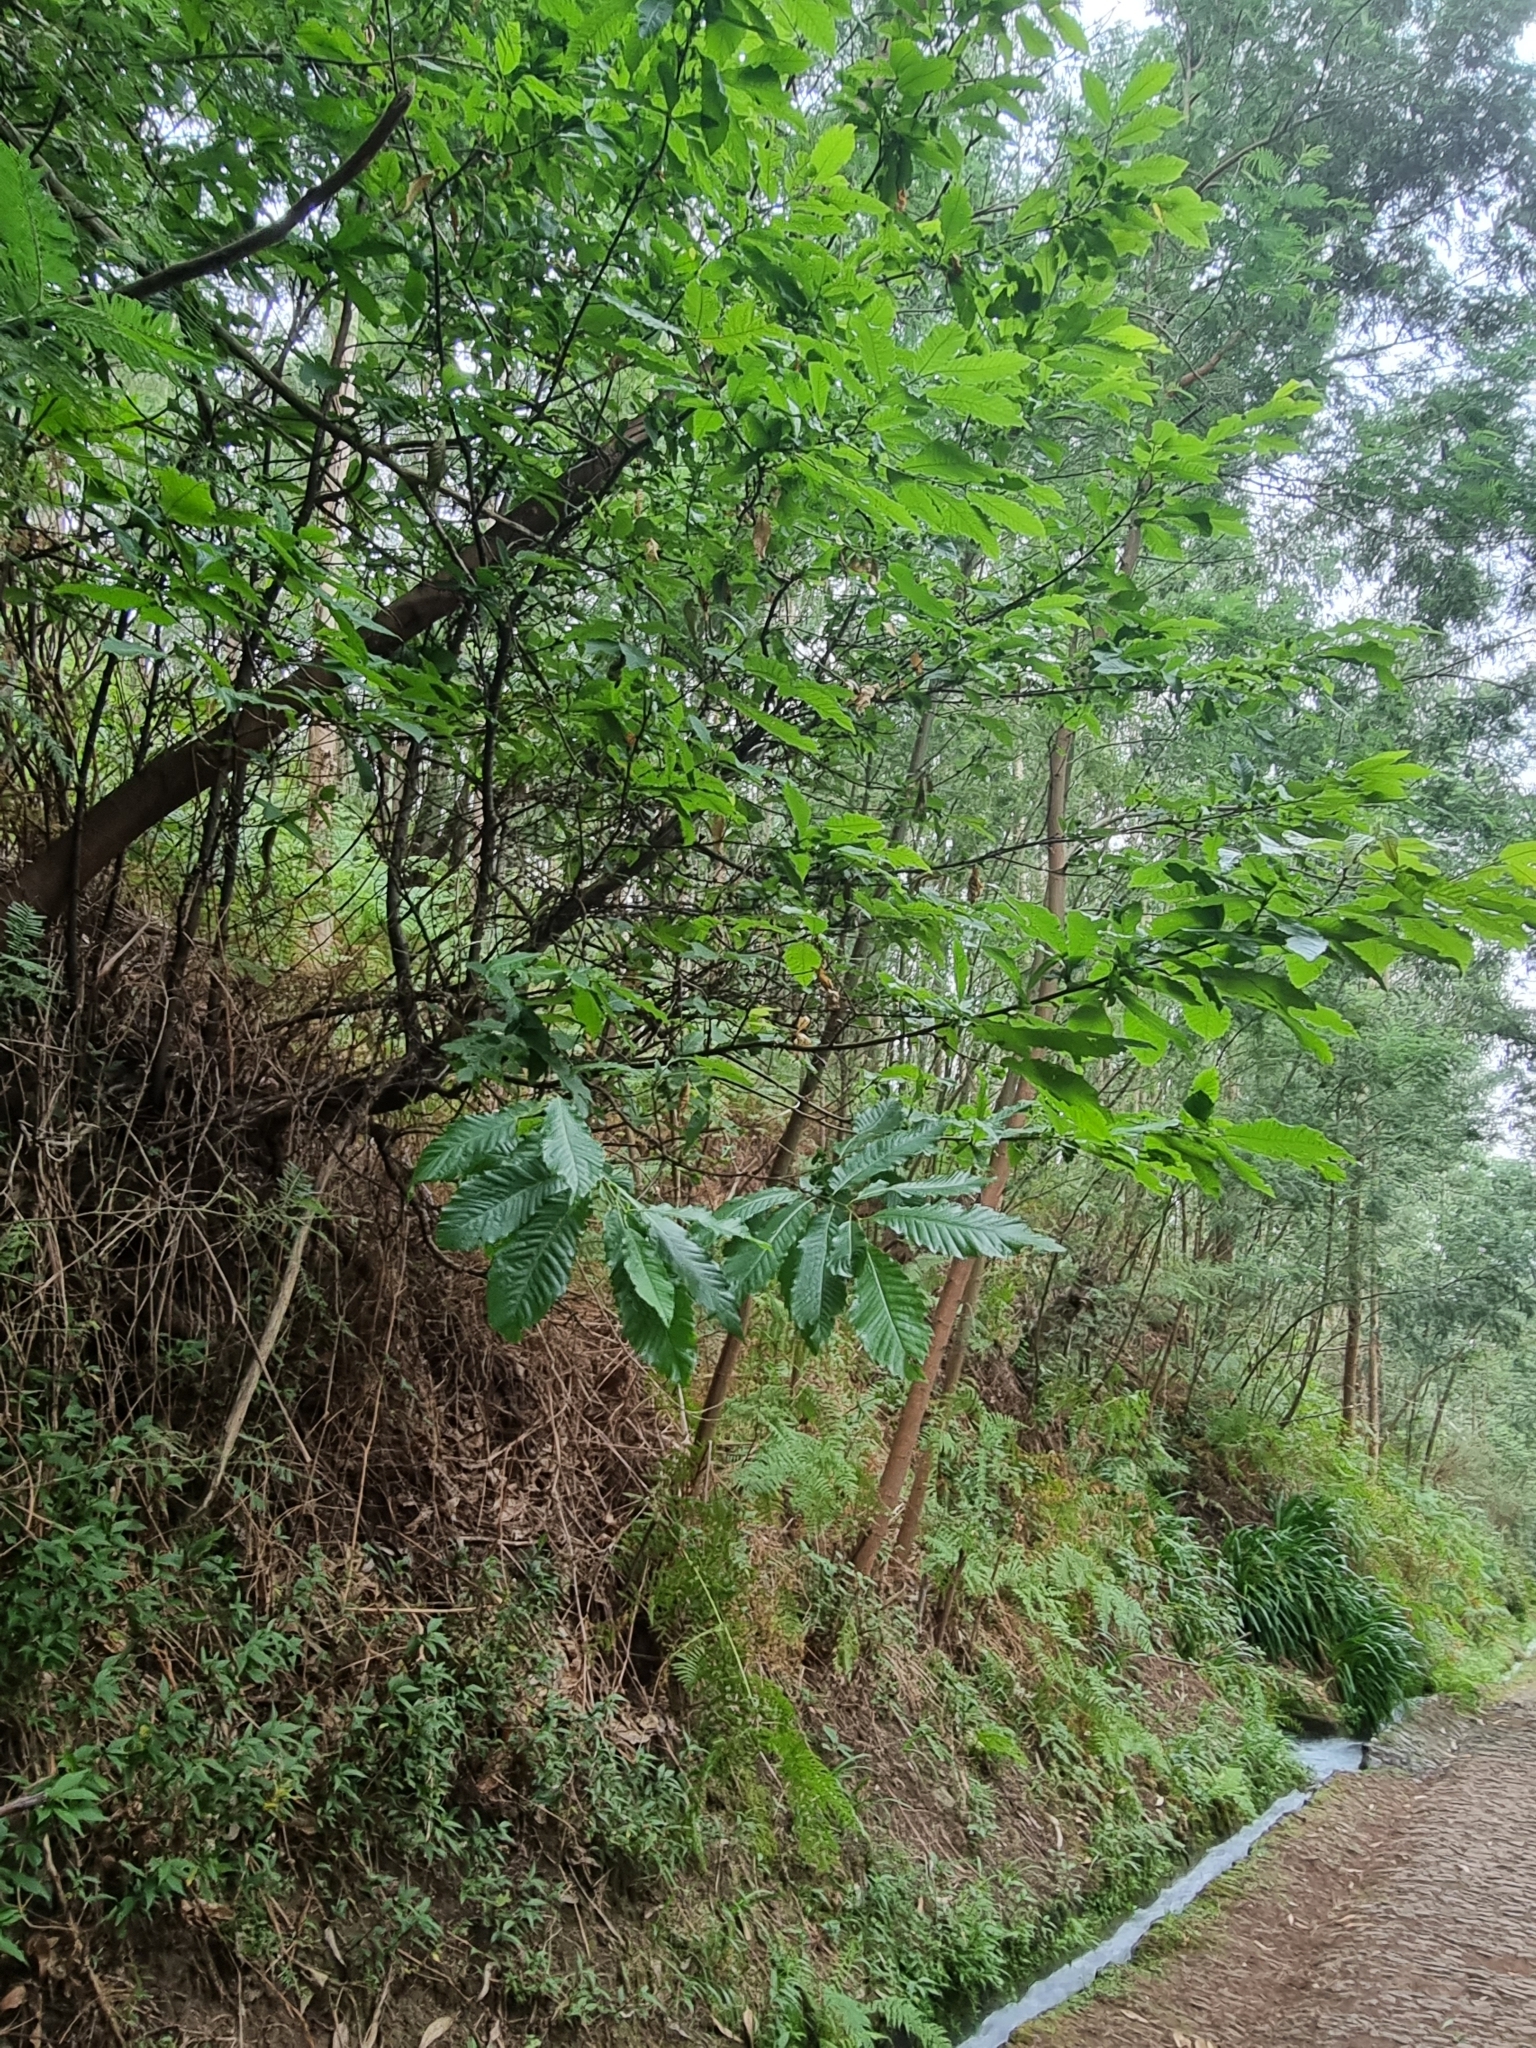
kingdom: Plantae
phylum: Tracheophyta
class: Magnoliopsida
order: Fagales
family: Fagaceae
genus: Castanea
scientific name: Castanea sativa
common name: Sweet chestnut
